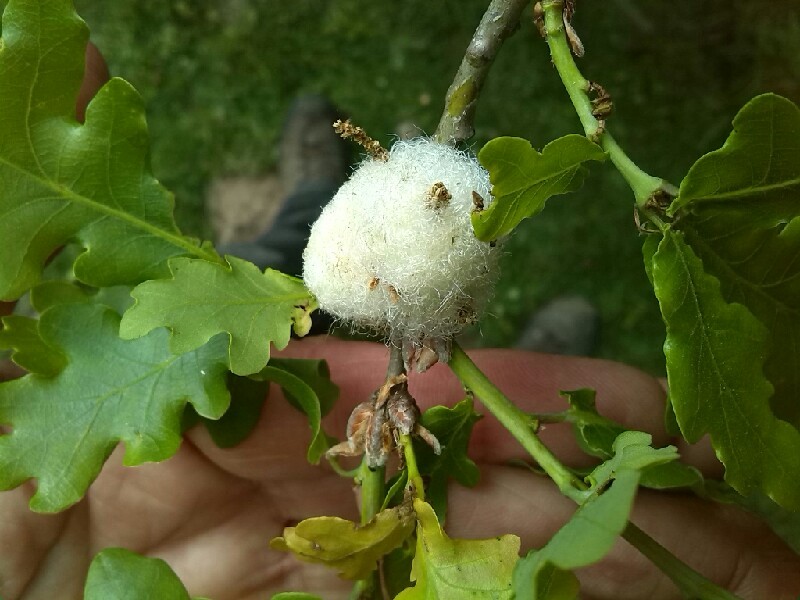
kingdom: Animalia
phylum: Arthropoda
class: Insecta
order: Hymenoptera
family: Cynipidae
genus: Andricus
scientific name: Andricus quercusramuli
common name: Cottonwool gall
